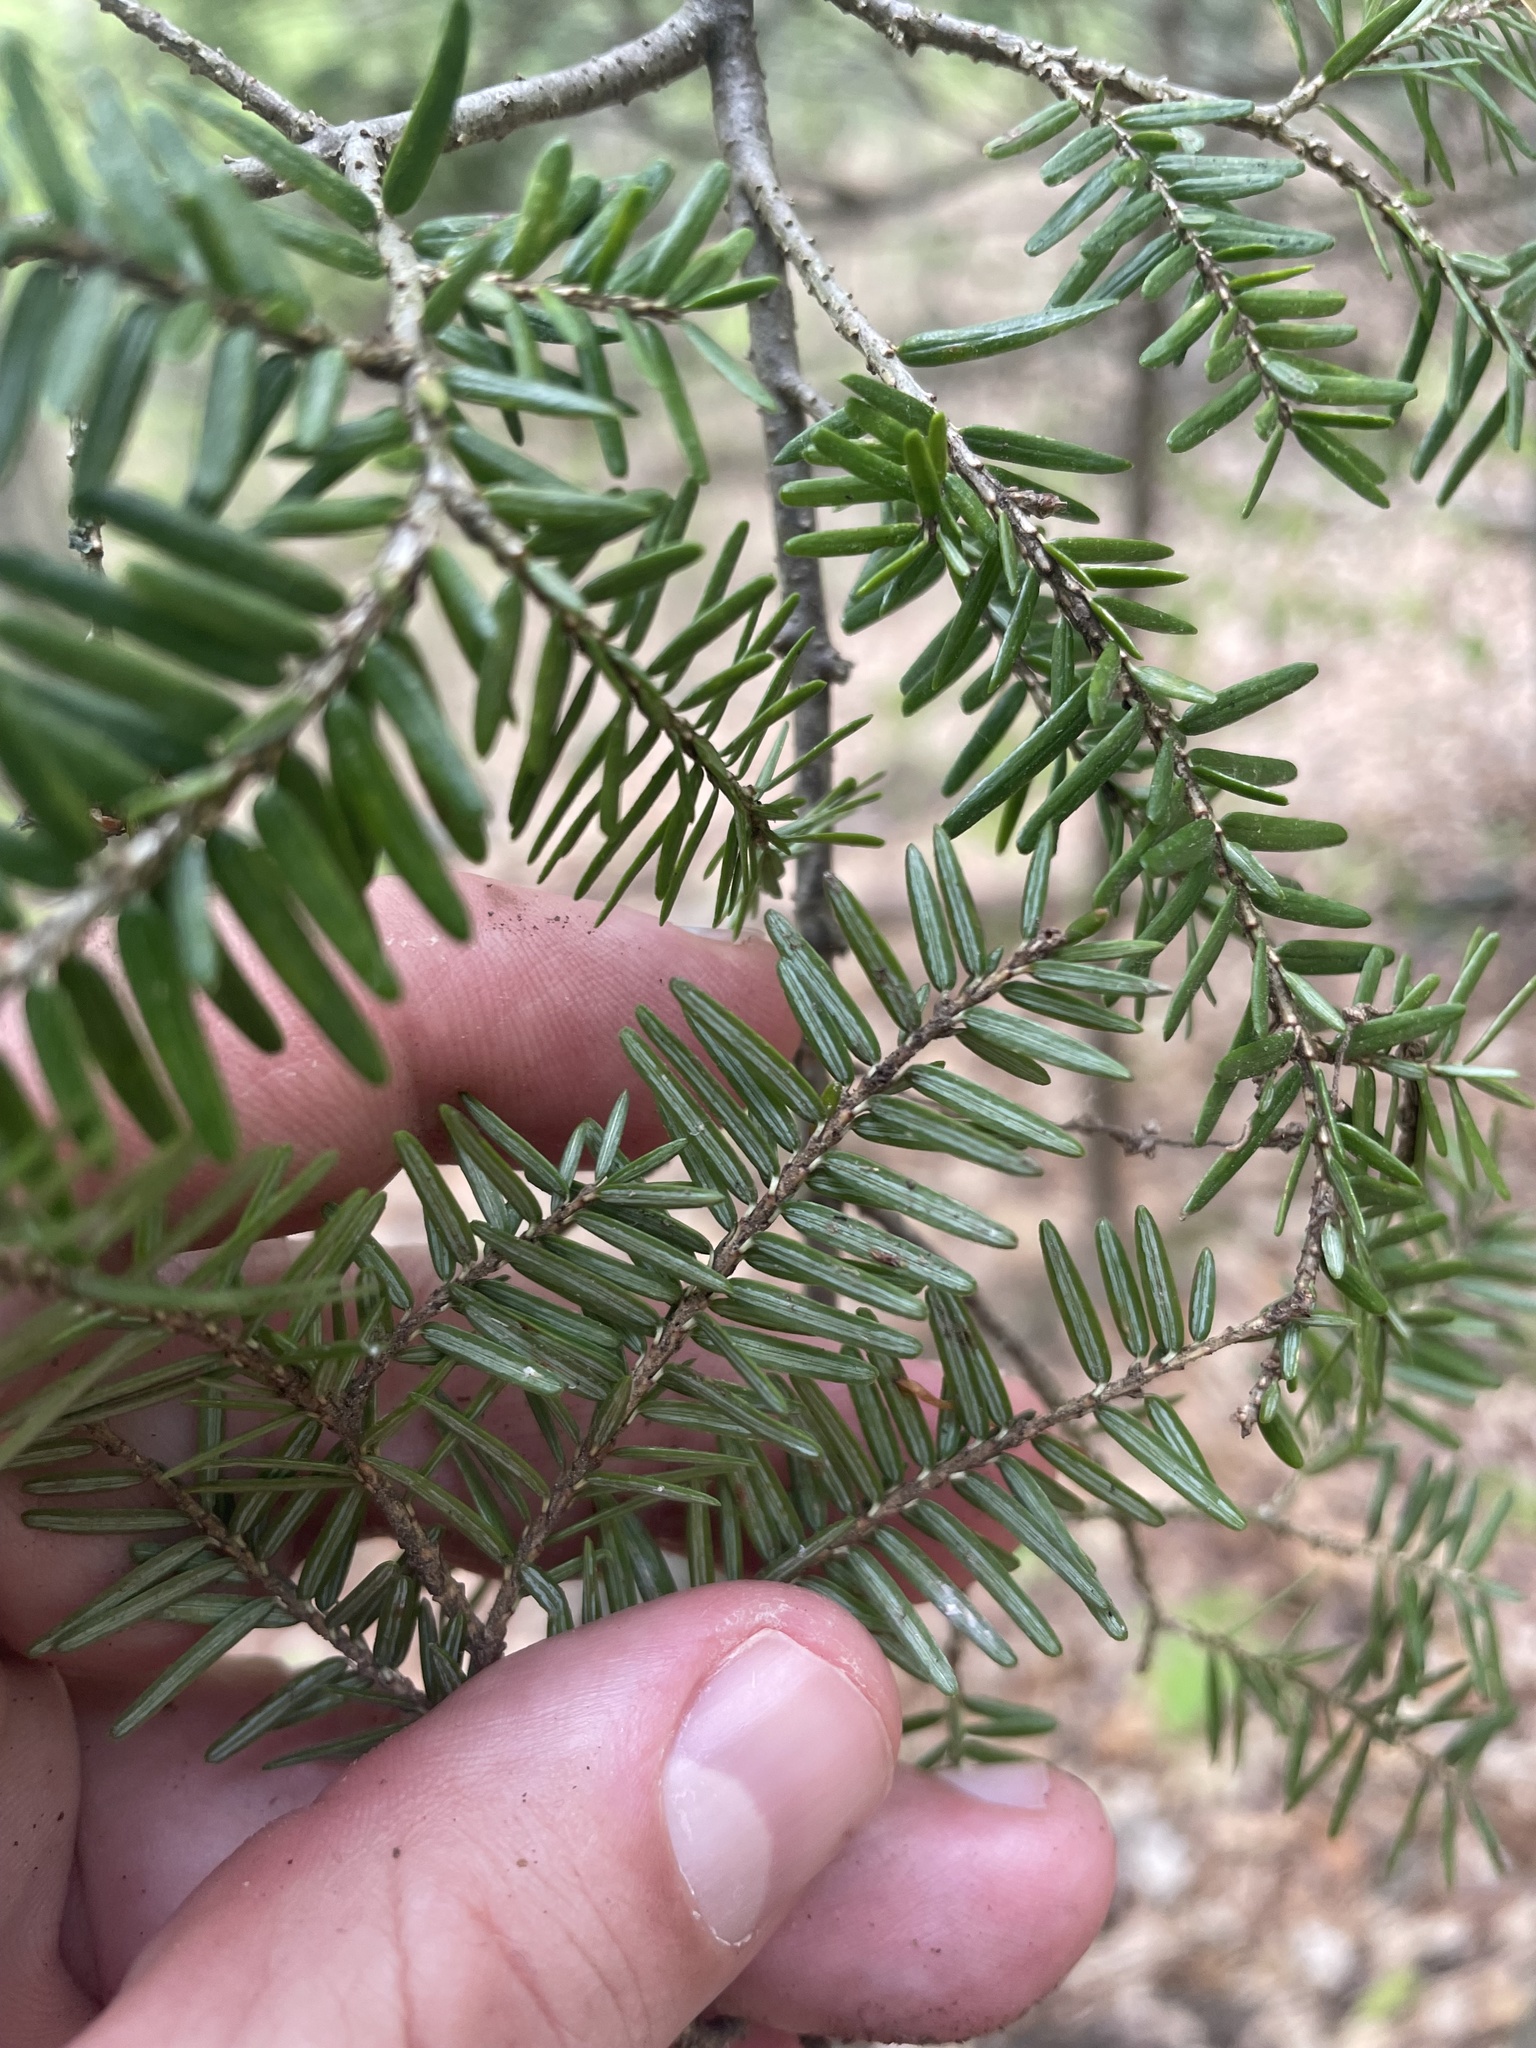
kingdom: Plantae
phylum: Tracheophyta
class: Pinopsida
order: Pinales
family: Pinaceae
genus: Tsuga
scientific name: Tsuga canadensis
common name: Eastern hemlock
